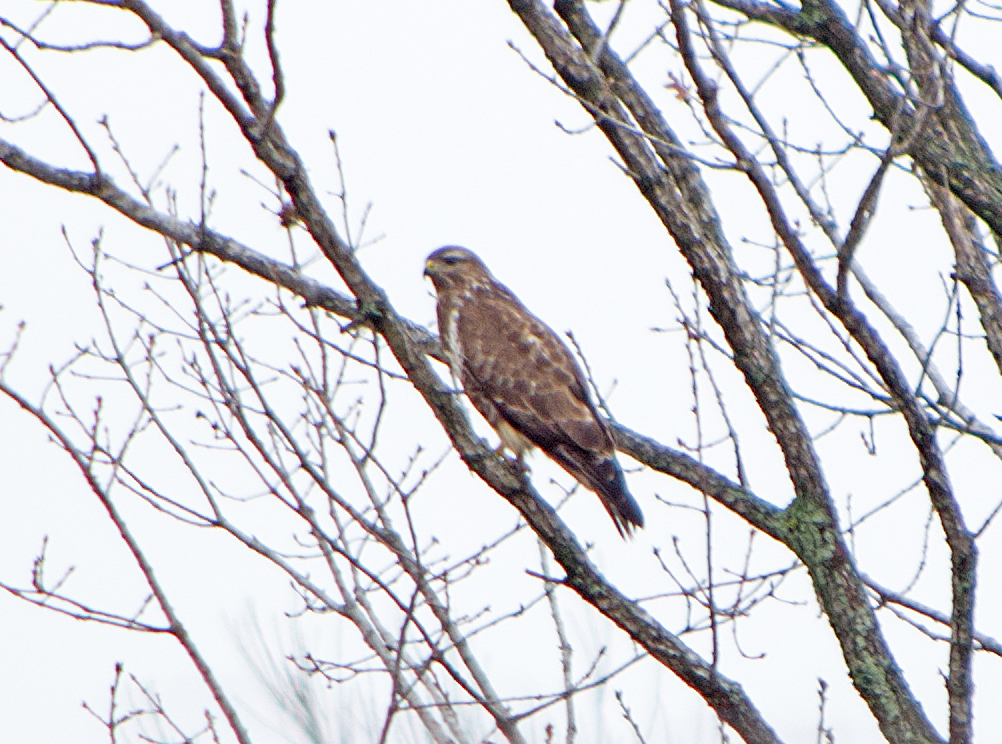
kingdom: Animalia
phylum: Chordata
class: Aves
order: Accipitriformes
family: Accipitridae
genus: Buteo
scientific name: Buteo buteo
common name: Common buzzard
